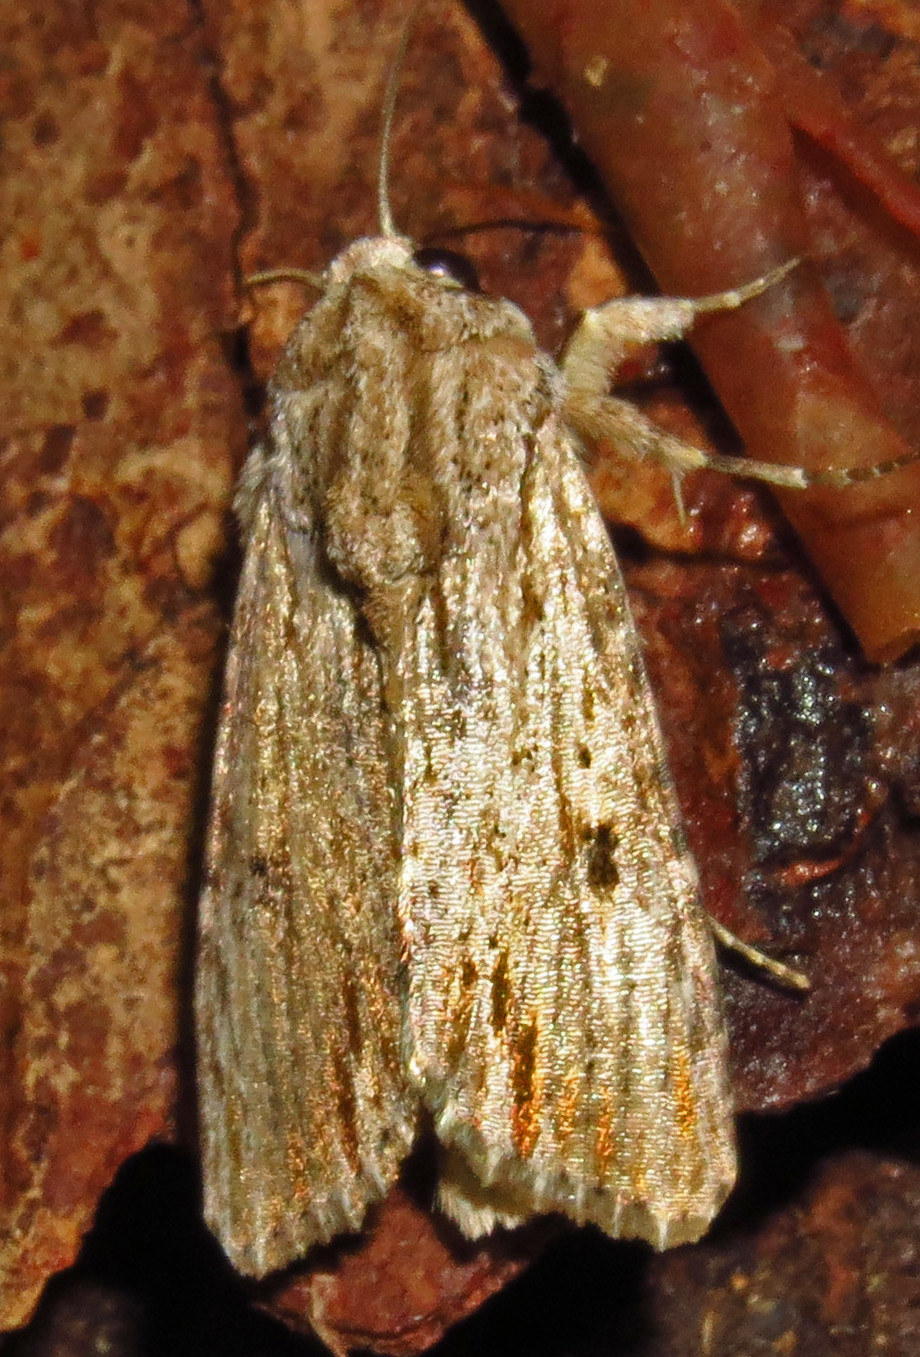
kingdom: Animalia
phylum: Arthropoda
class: Insecta
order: Lepidoptera
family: Noctuidae
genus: Spodoptera
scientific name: Spodoptera eridania
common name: Southern army worm
